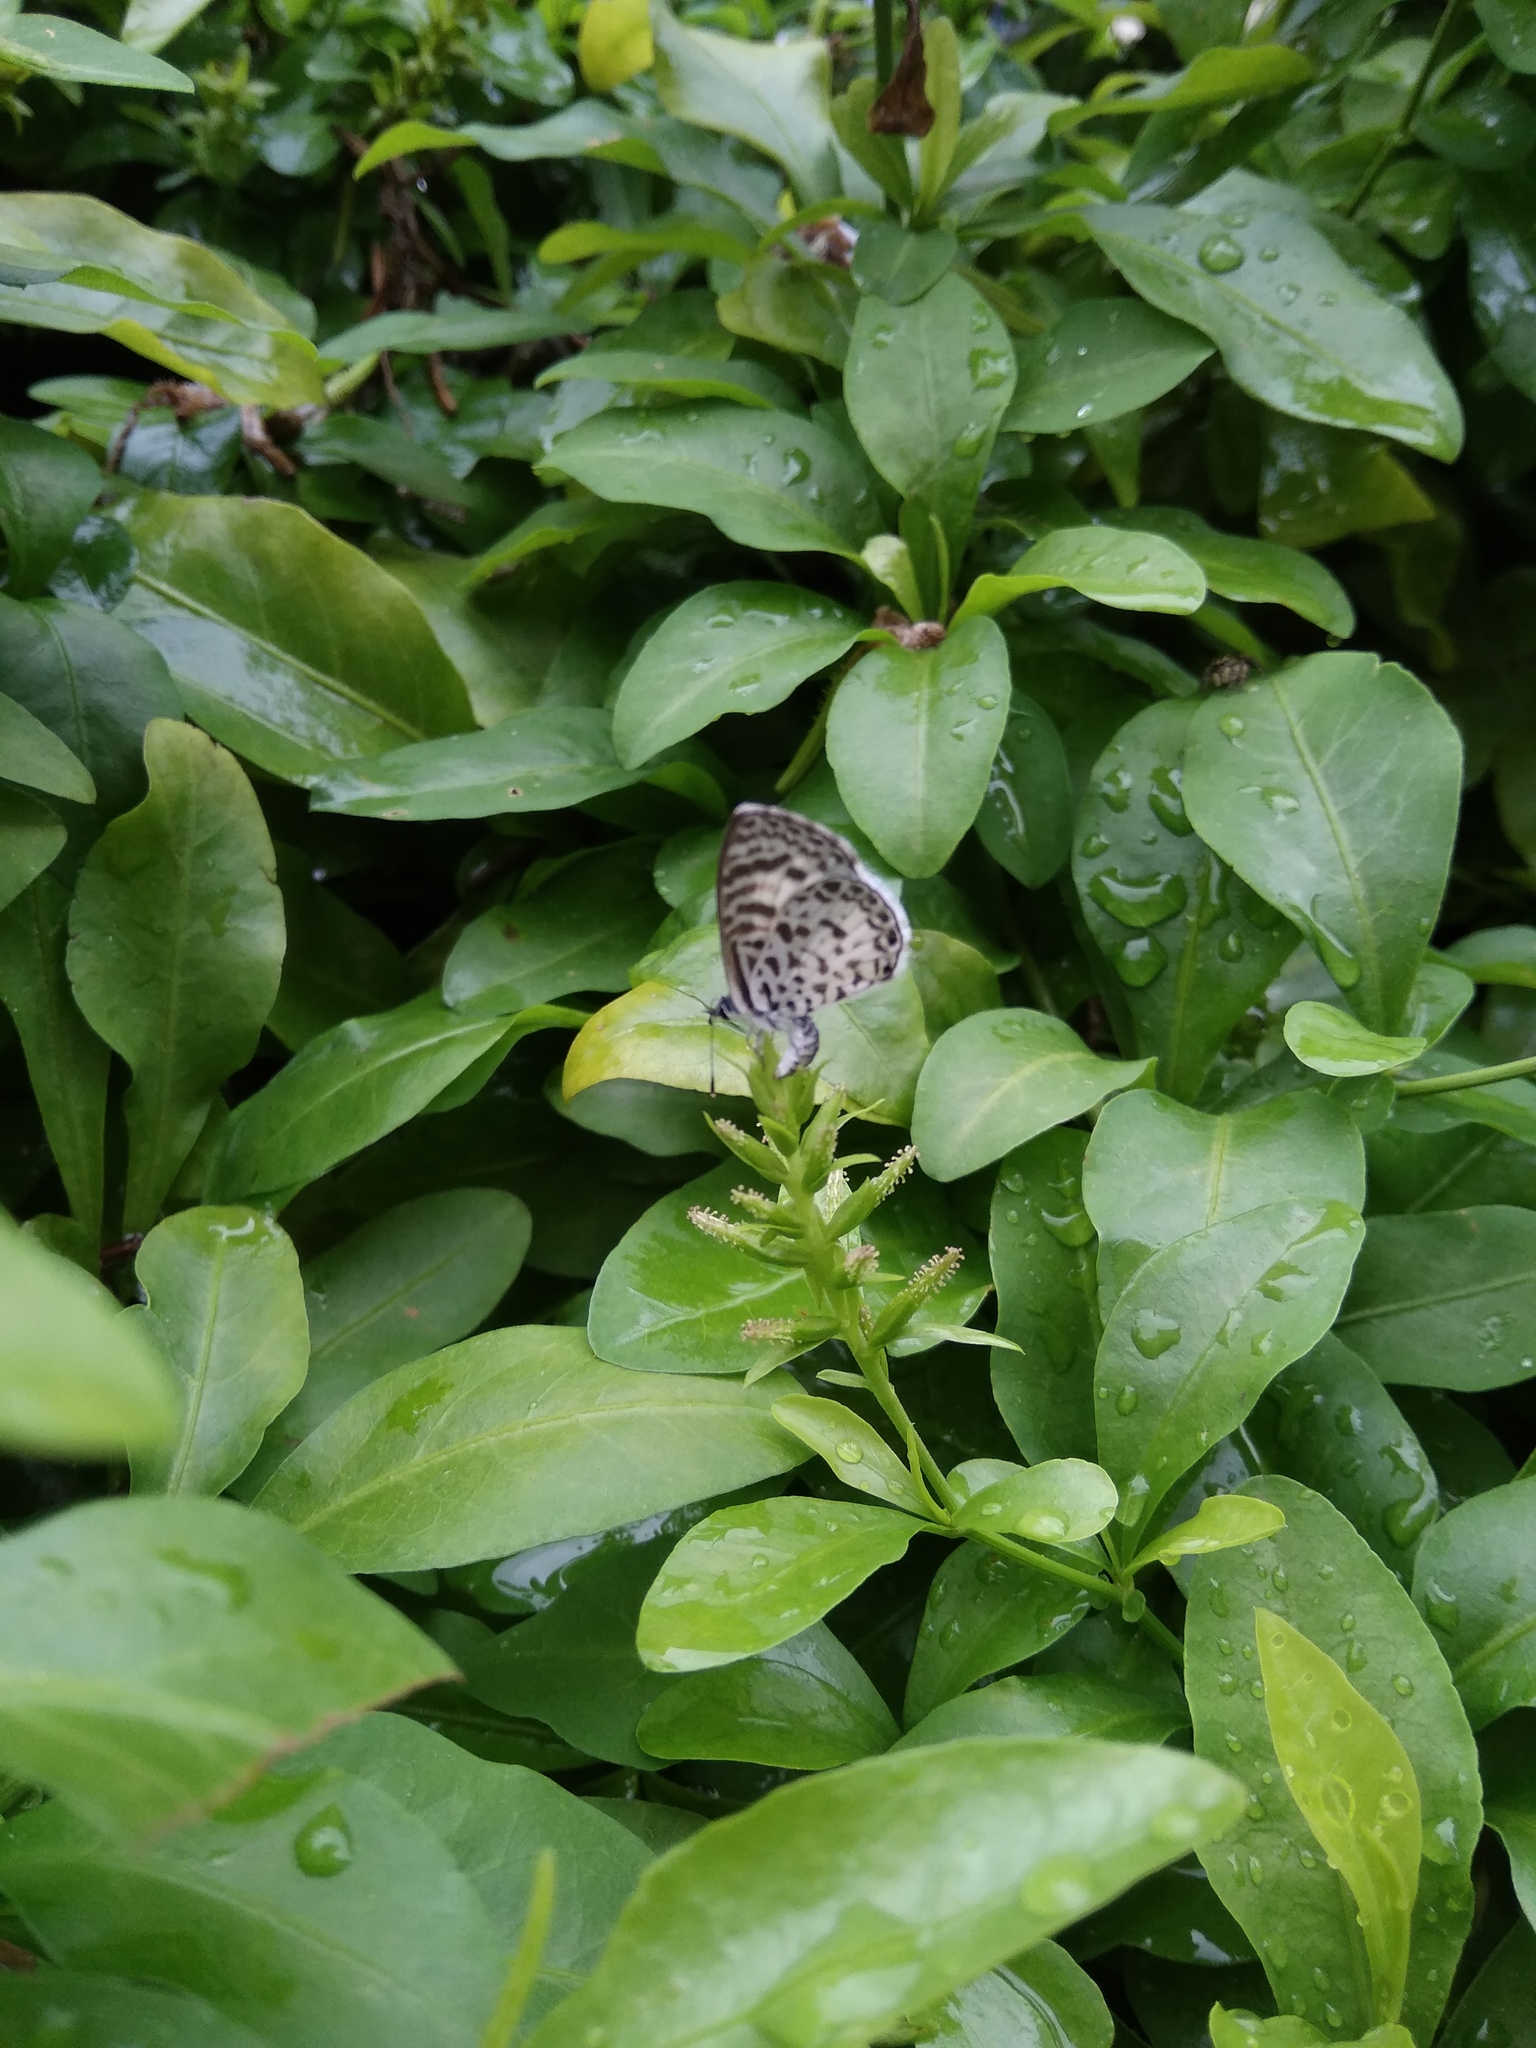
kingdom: Animalia
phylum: Arthropoda
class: Insecta
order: Lepidoptera
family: Lycaenidae
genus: Leptotes
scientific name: Leptotes cassius
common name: Cassius blue
